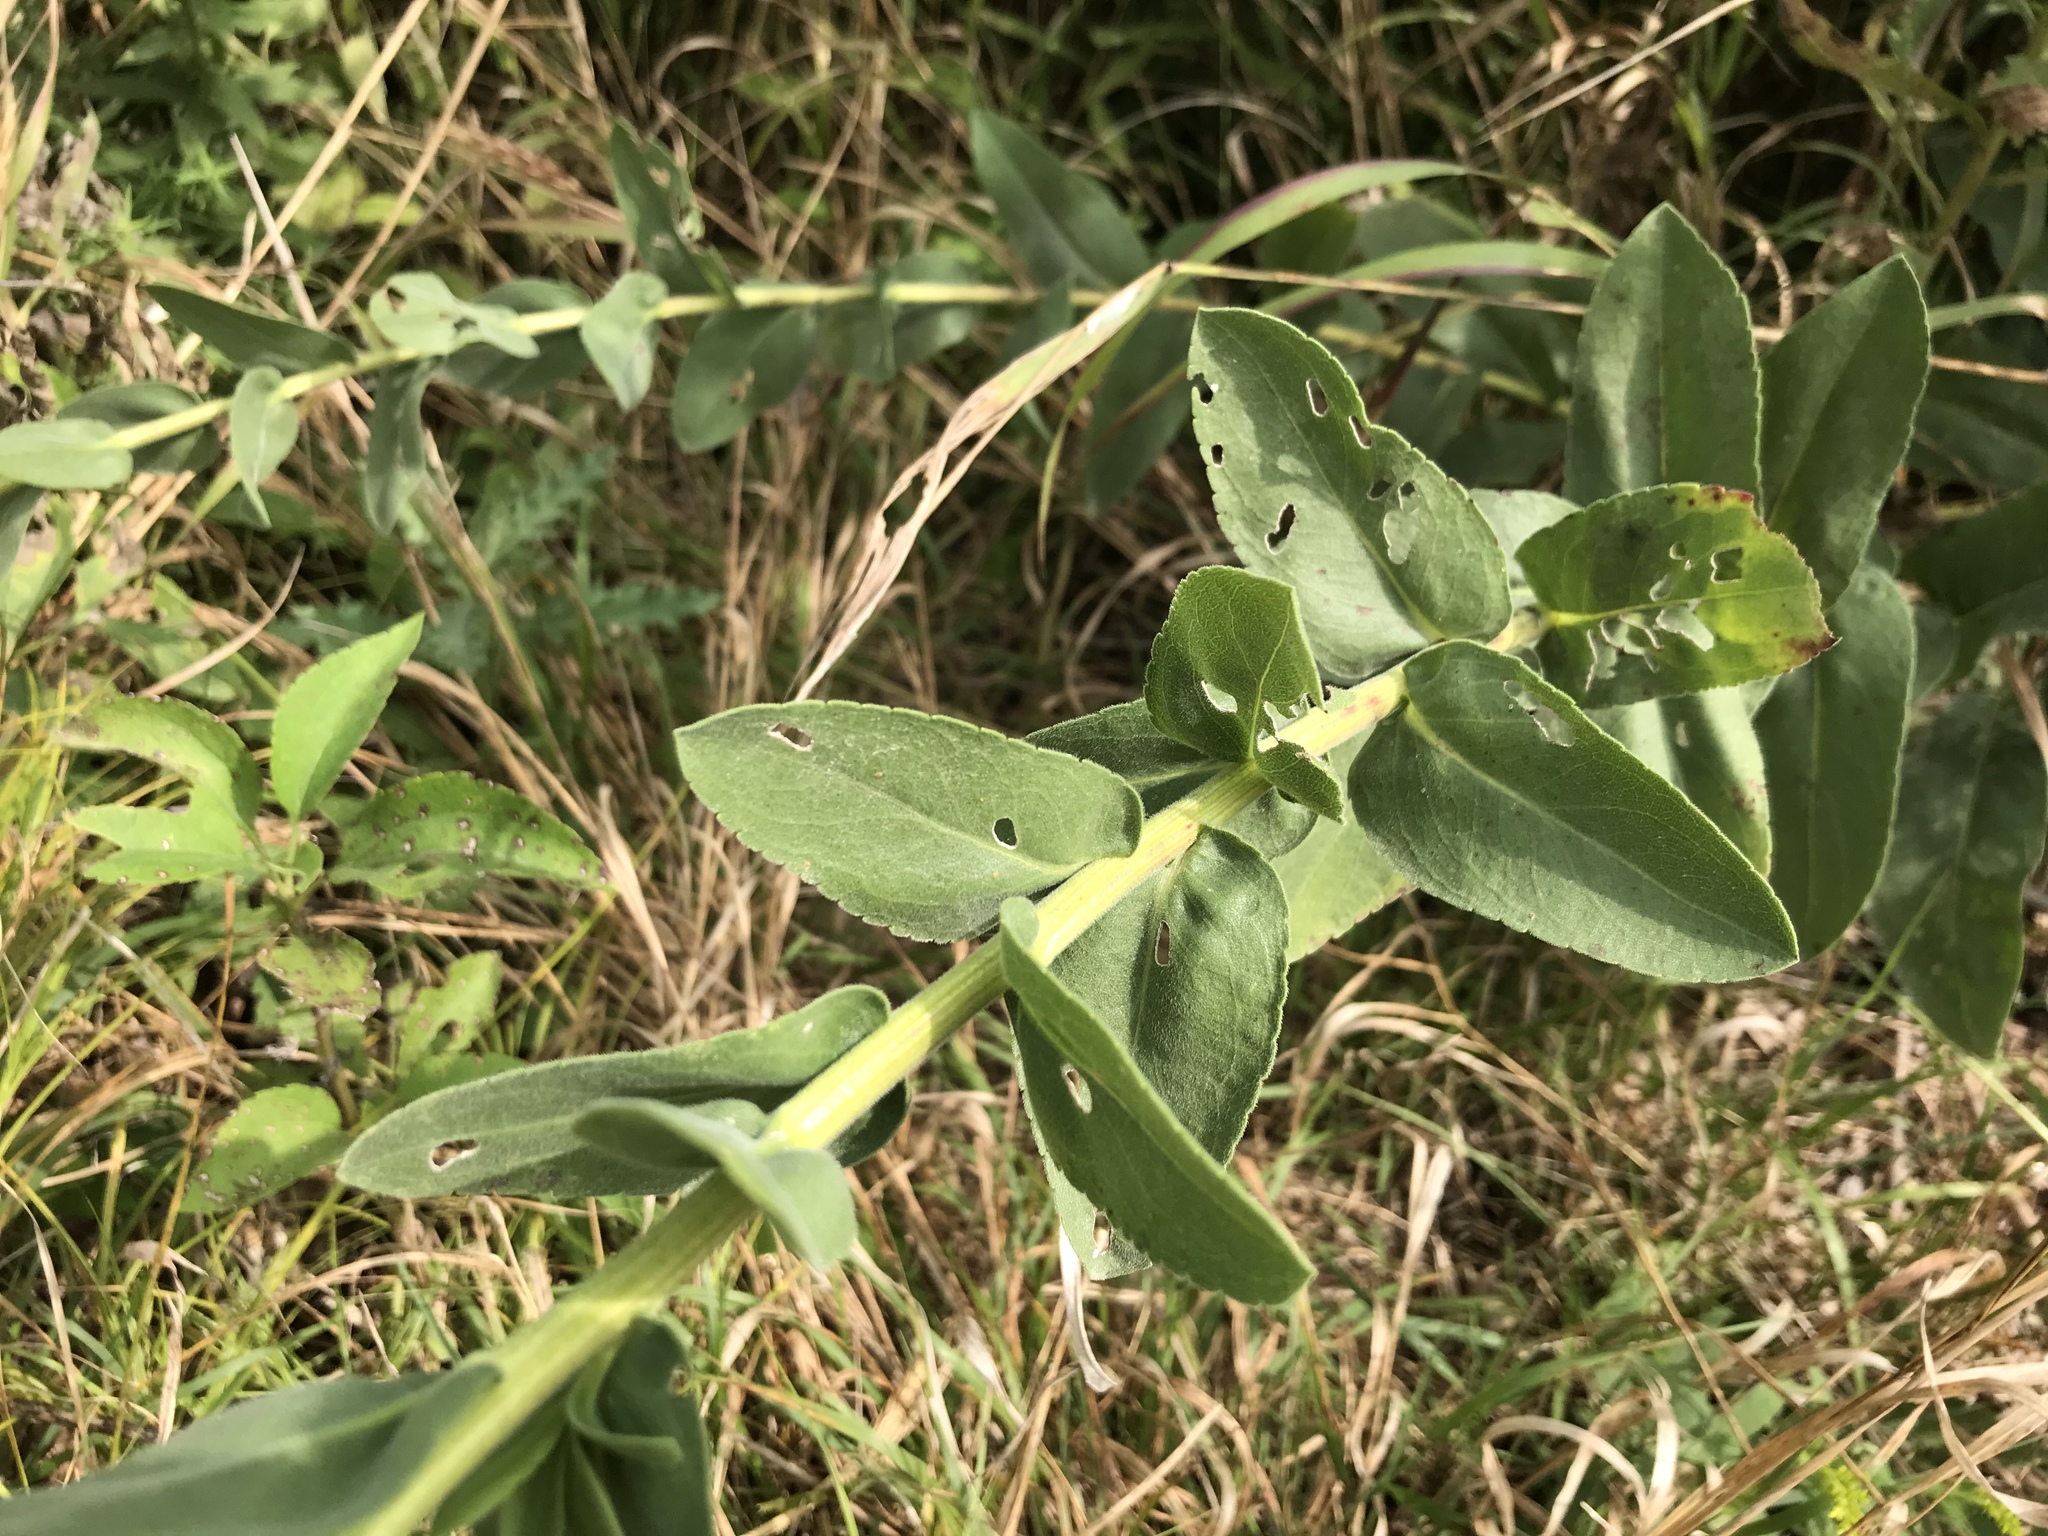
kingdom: Plantae
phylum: Tracheophyta
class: Magnoliopsida
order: Asterales
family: Asteraceae
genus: Solidago
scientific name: Solidago rigida
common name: Rigid goldenrod
